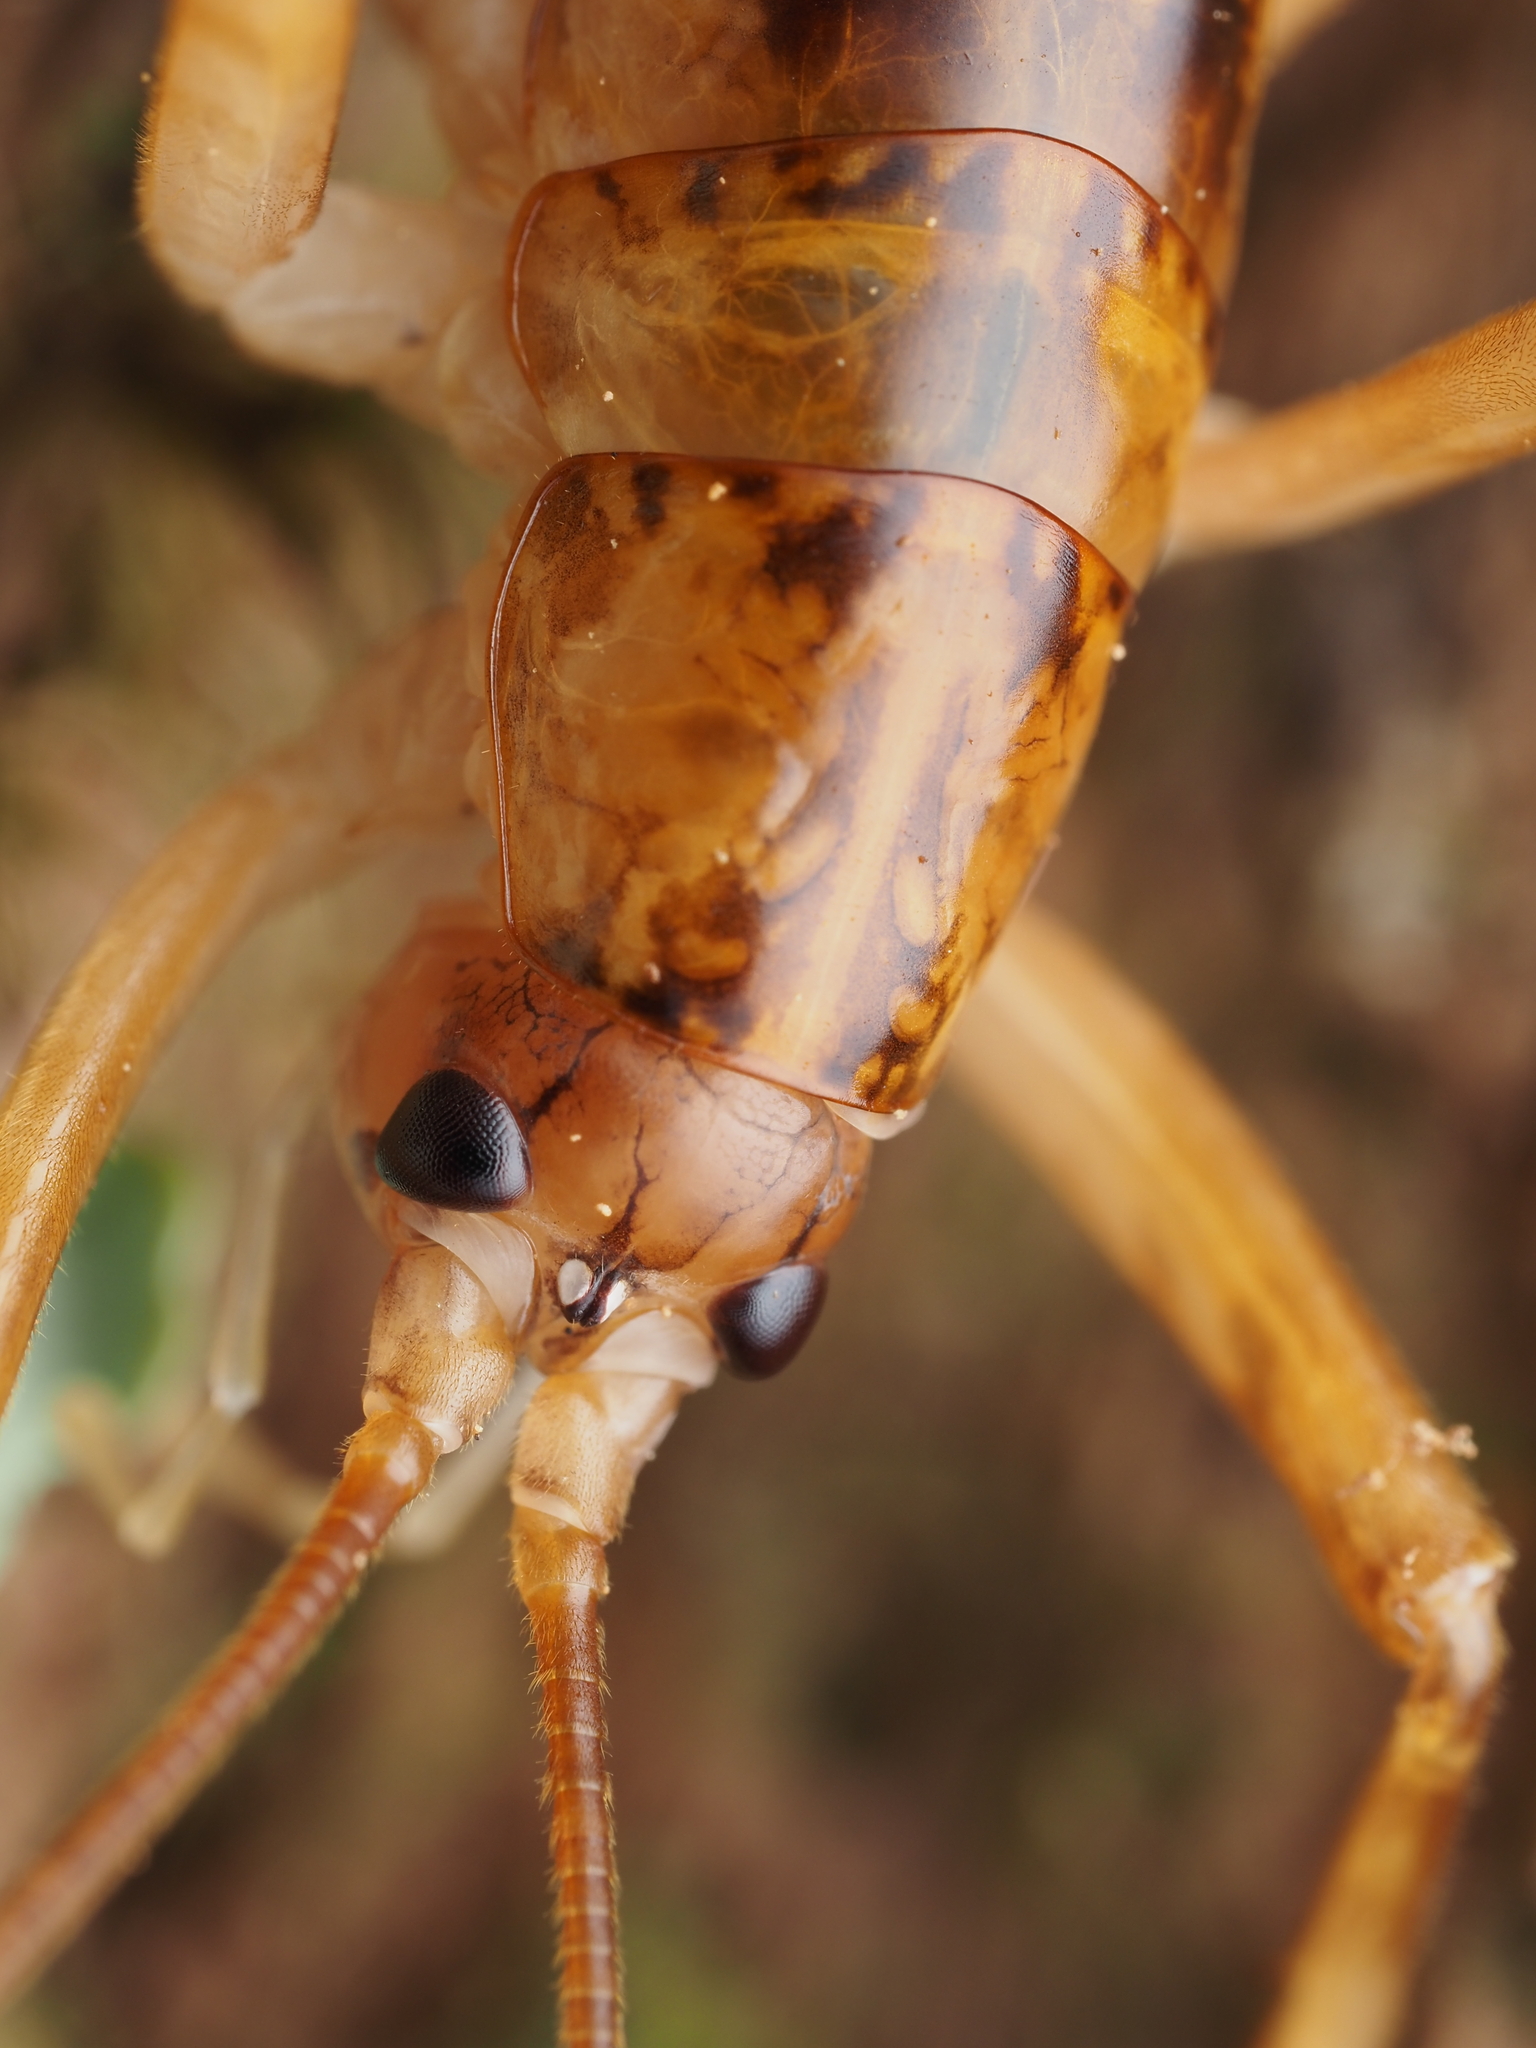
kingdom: Animalia
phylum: Arthropoda
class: Insecta
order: Orthoptera
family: Rhaphidophoridae
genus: Talitropsis
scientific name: Talitropsis sedilloti
